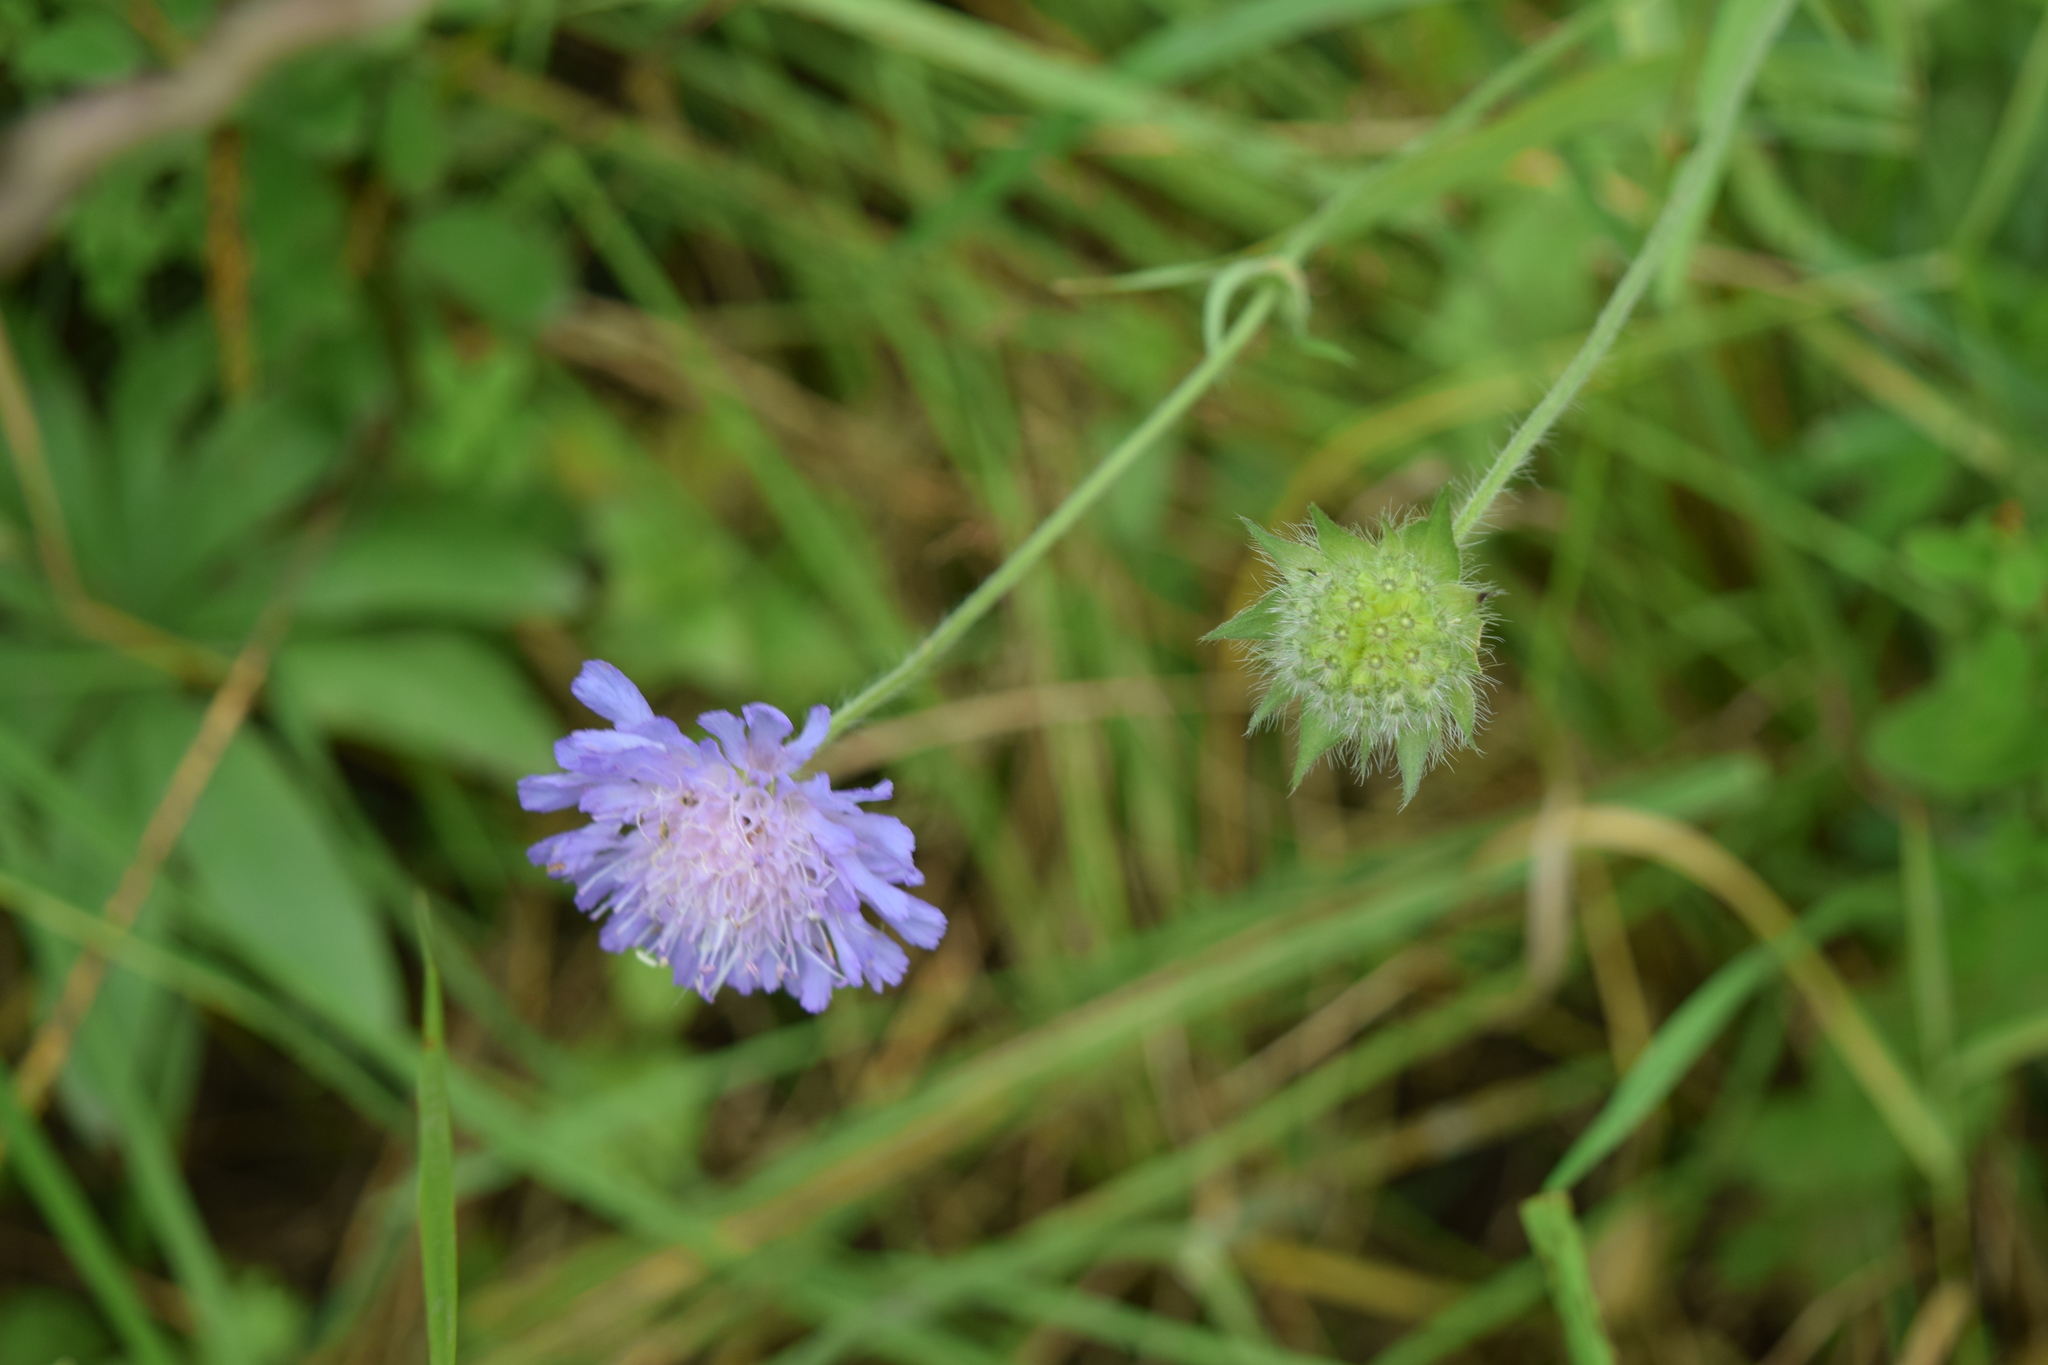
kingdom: Plantae
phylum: Tracheophyta
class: Magnoliopsida
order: Dipsacales
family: Caprifoliaceae
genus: Knautia
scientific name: Knautia arvensis
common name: Field scabiosa
